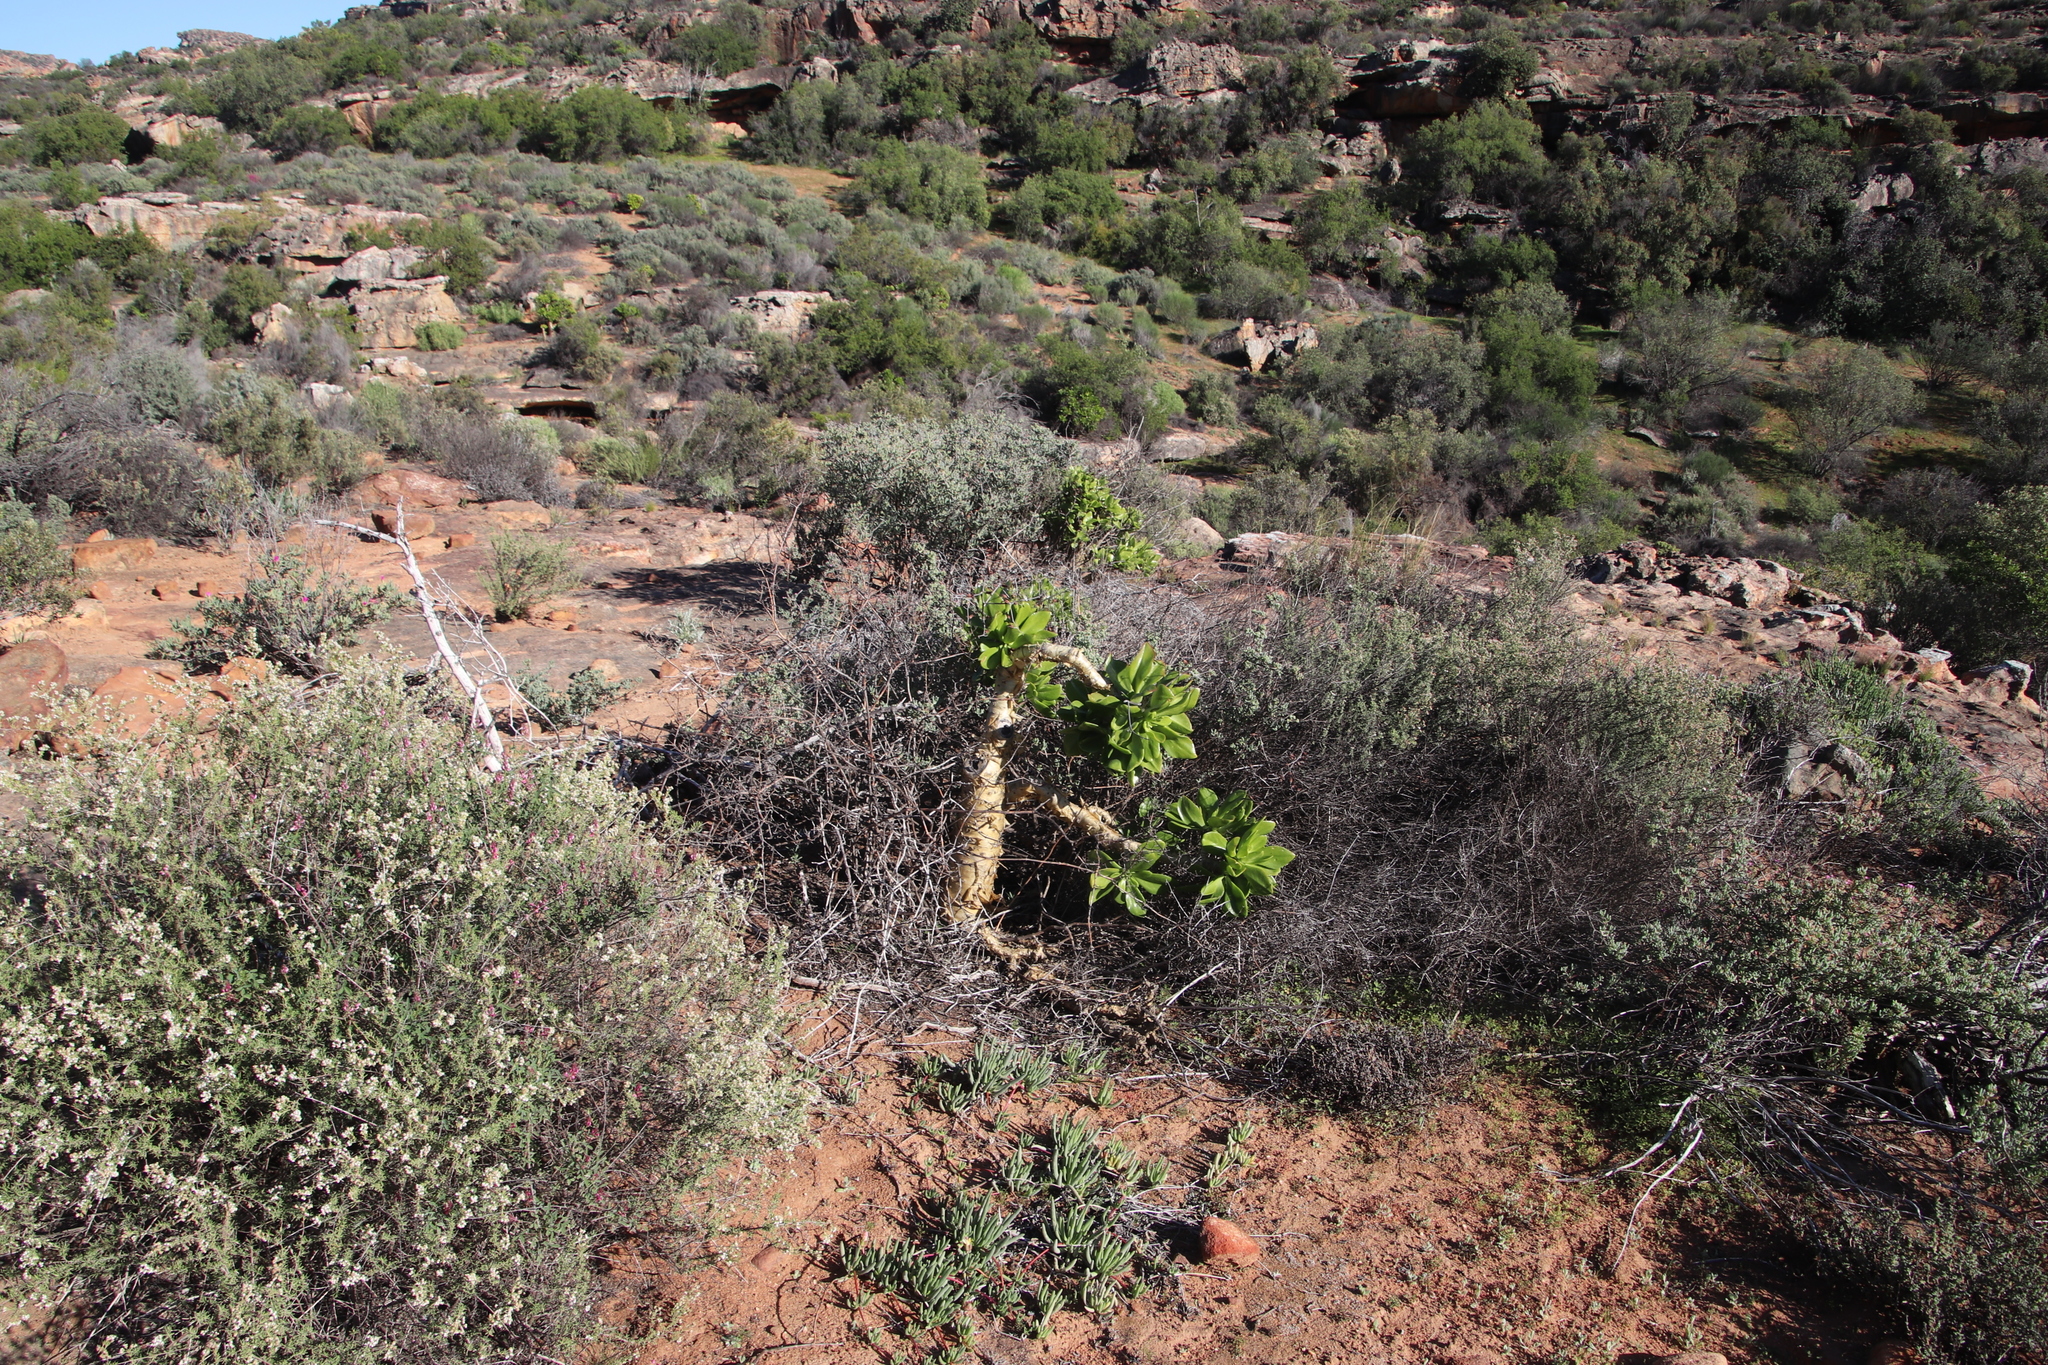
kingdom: Plantae
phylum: Tracheophyta
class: Magnoliopsida
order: Saxifragales
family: Crassulaceae
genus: Tylecodon
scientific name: Tylecodon paniculatus
